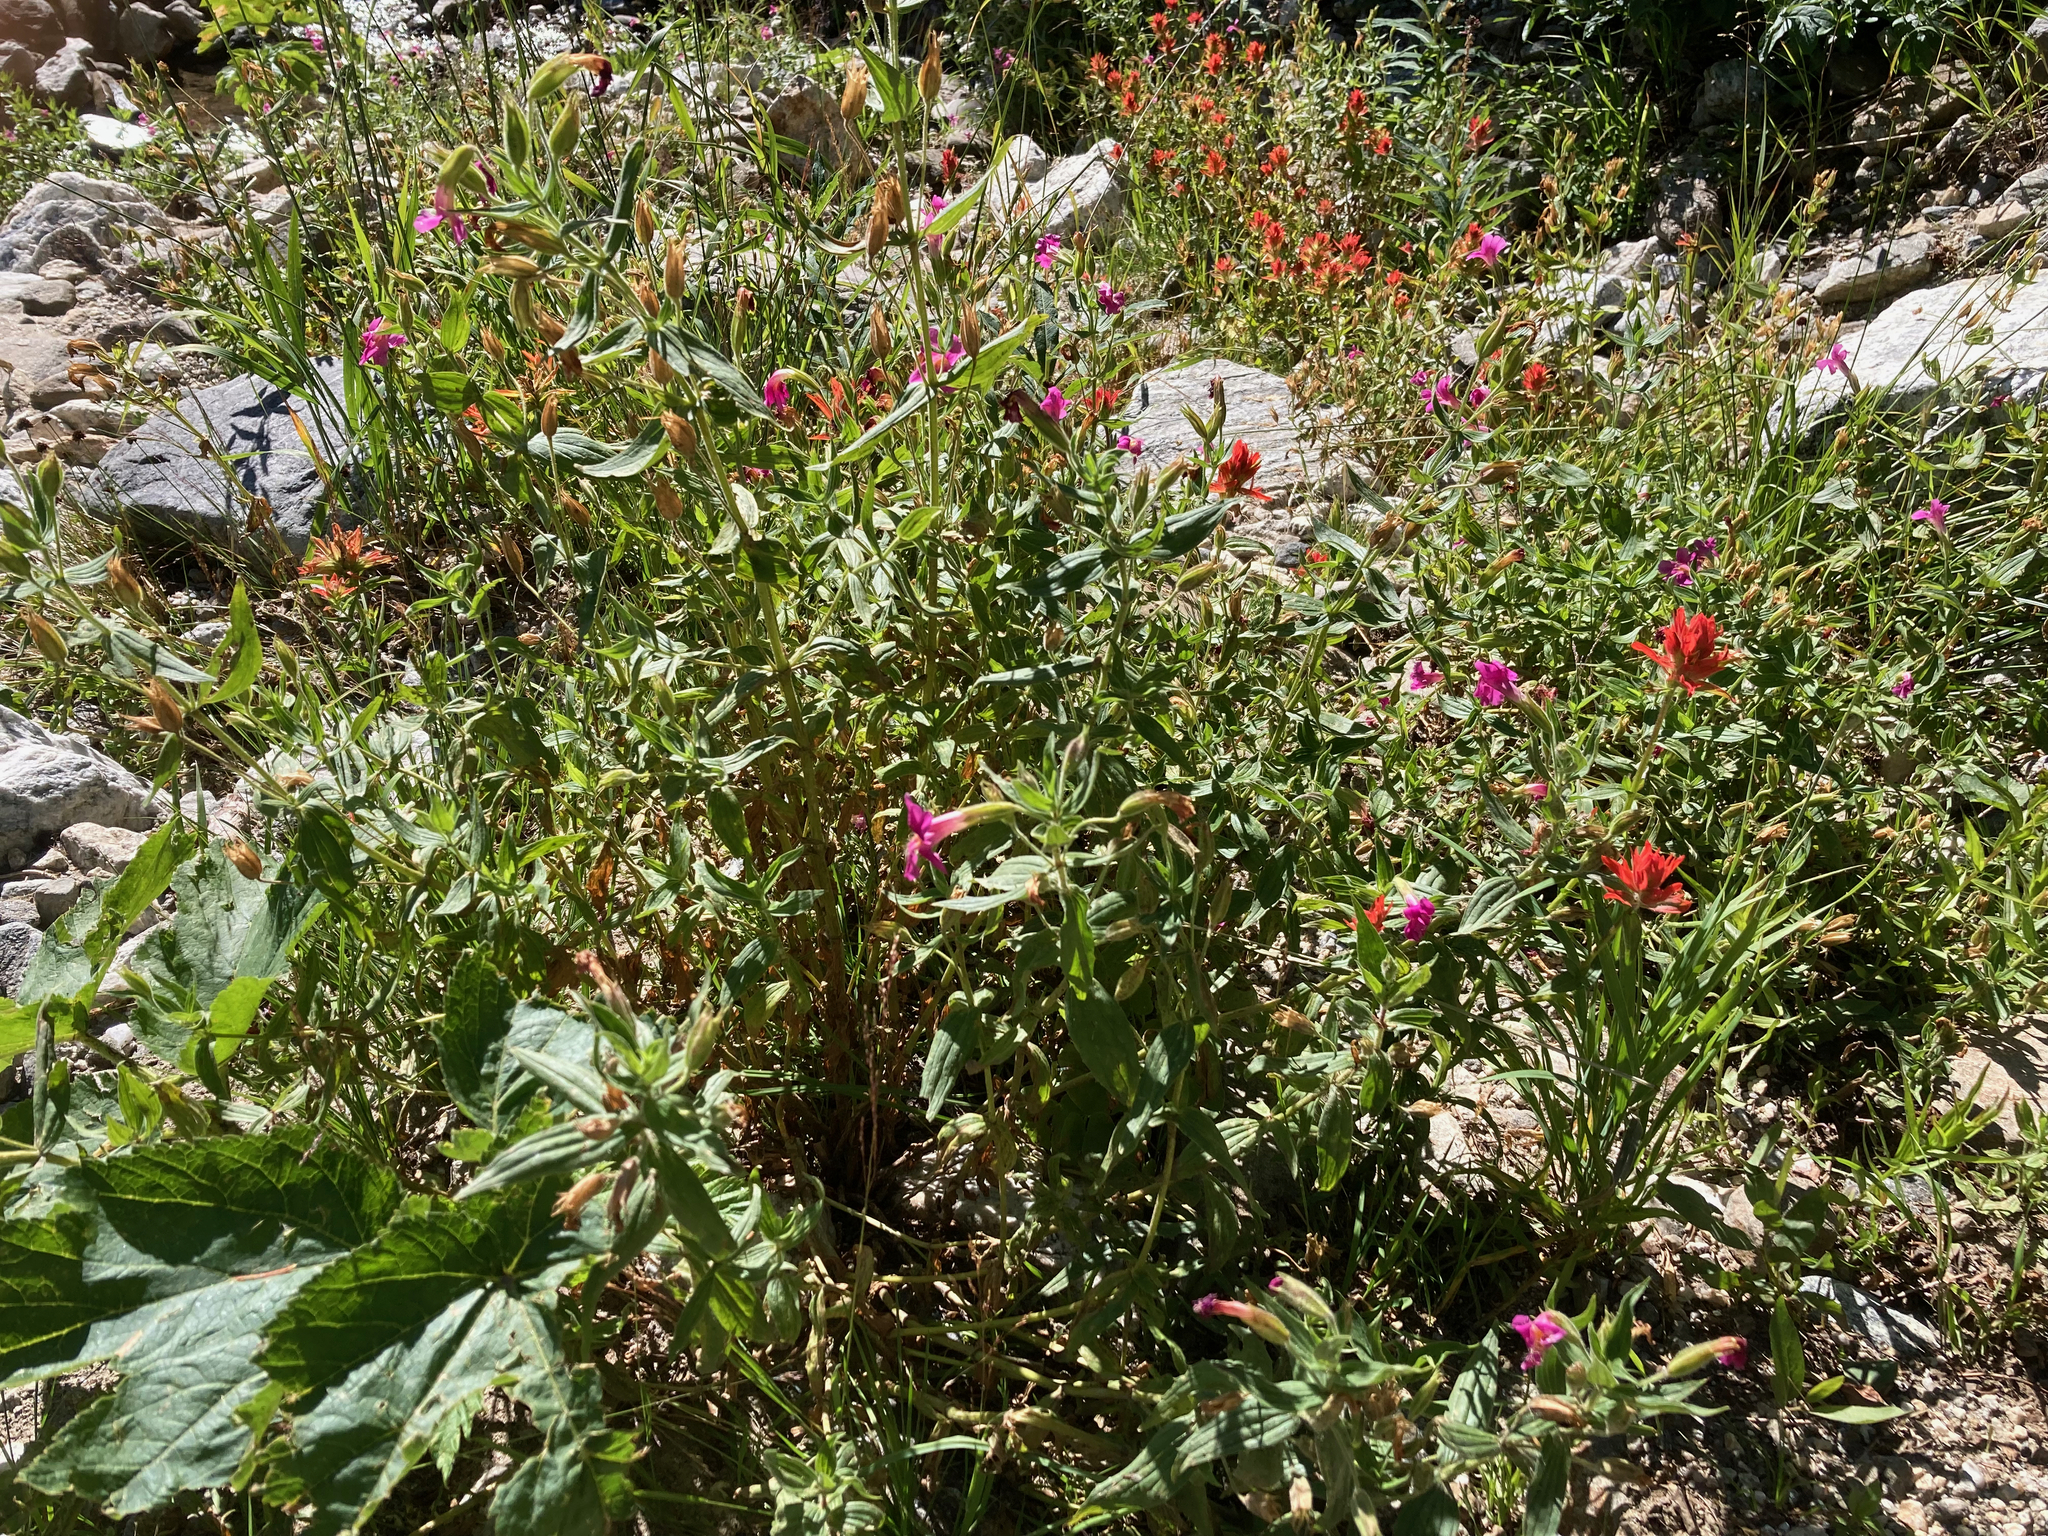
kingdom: Plantae
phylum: Tracheophyta
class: Magnoliopsida
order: Lamiales
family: Orobanchaceae
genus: Castilleja
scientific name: Castilleja miniata
